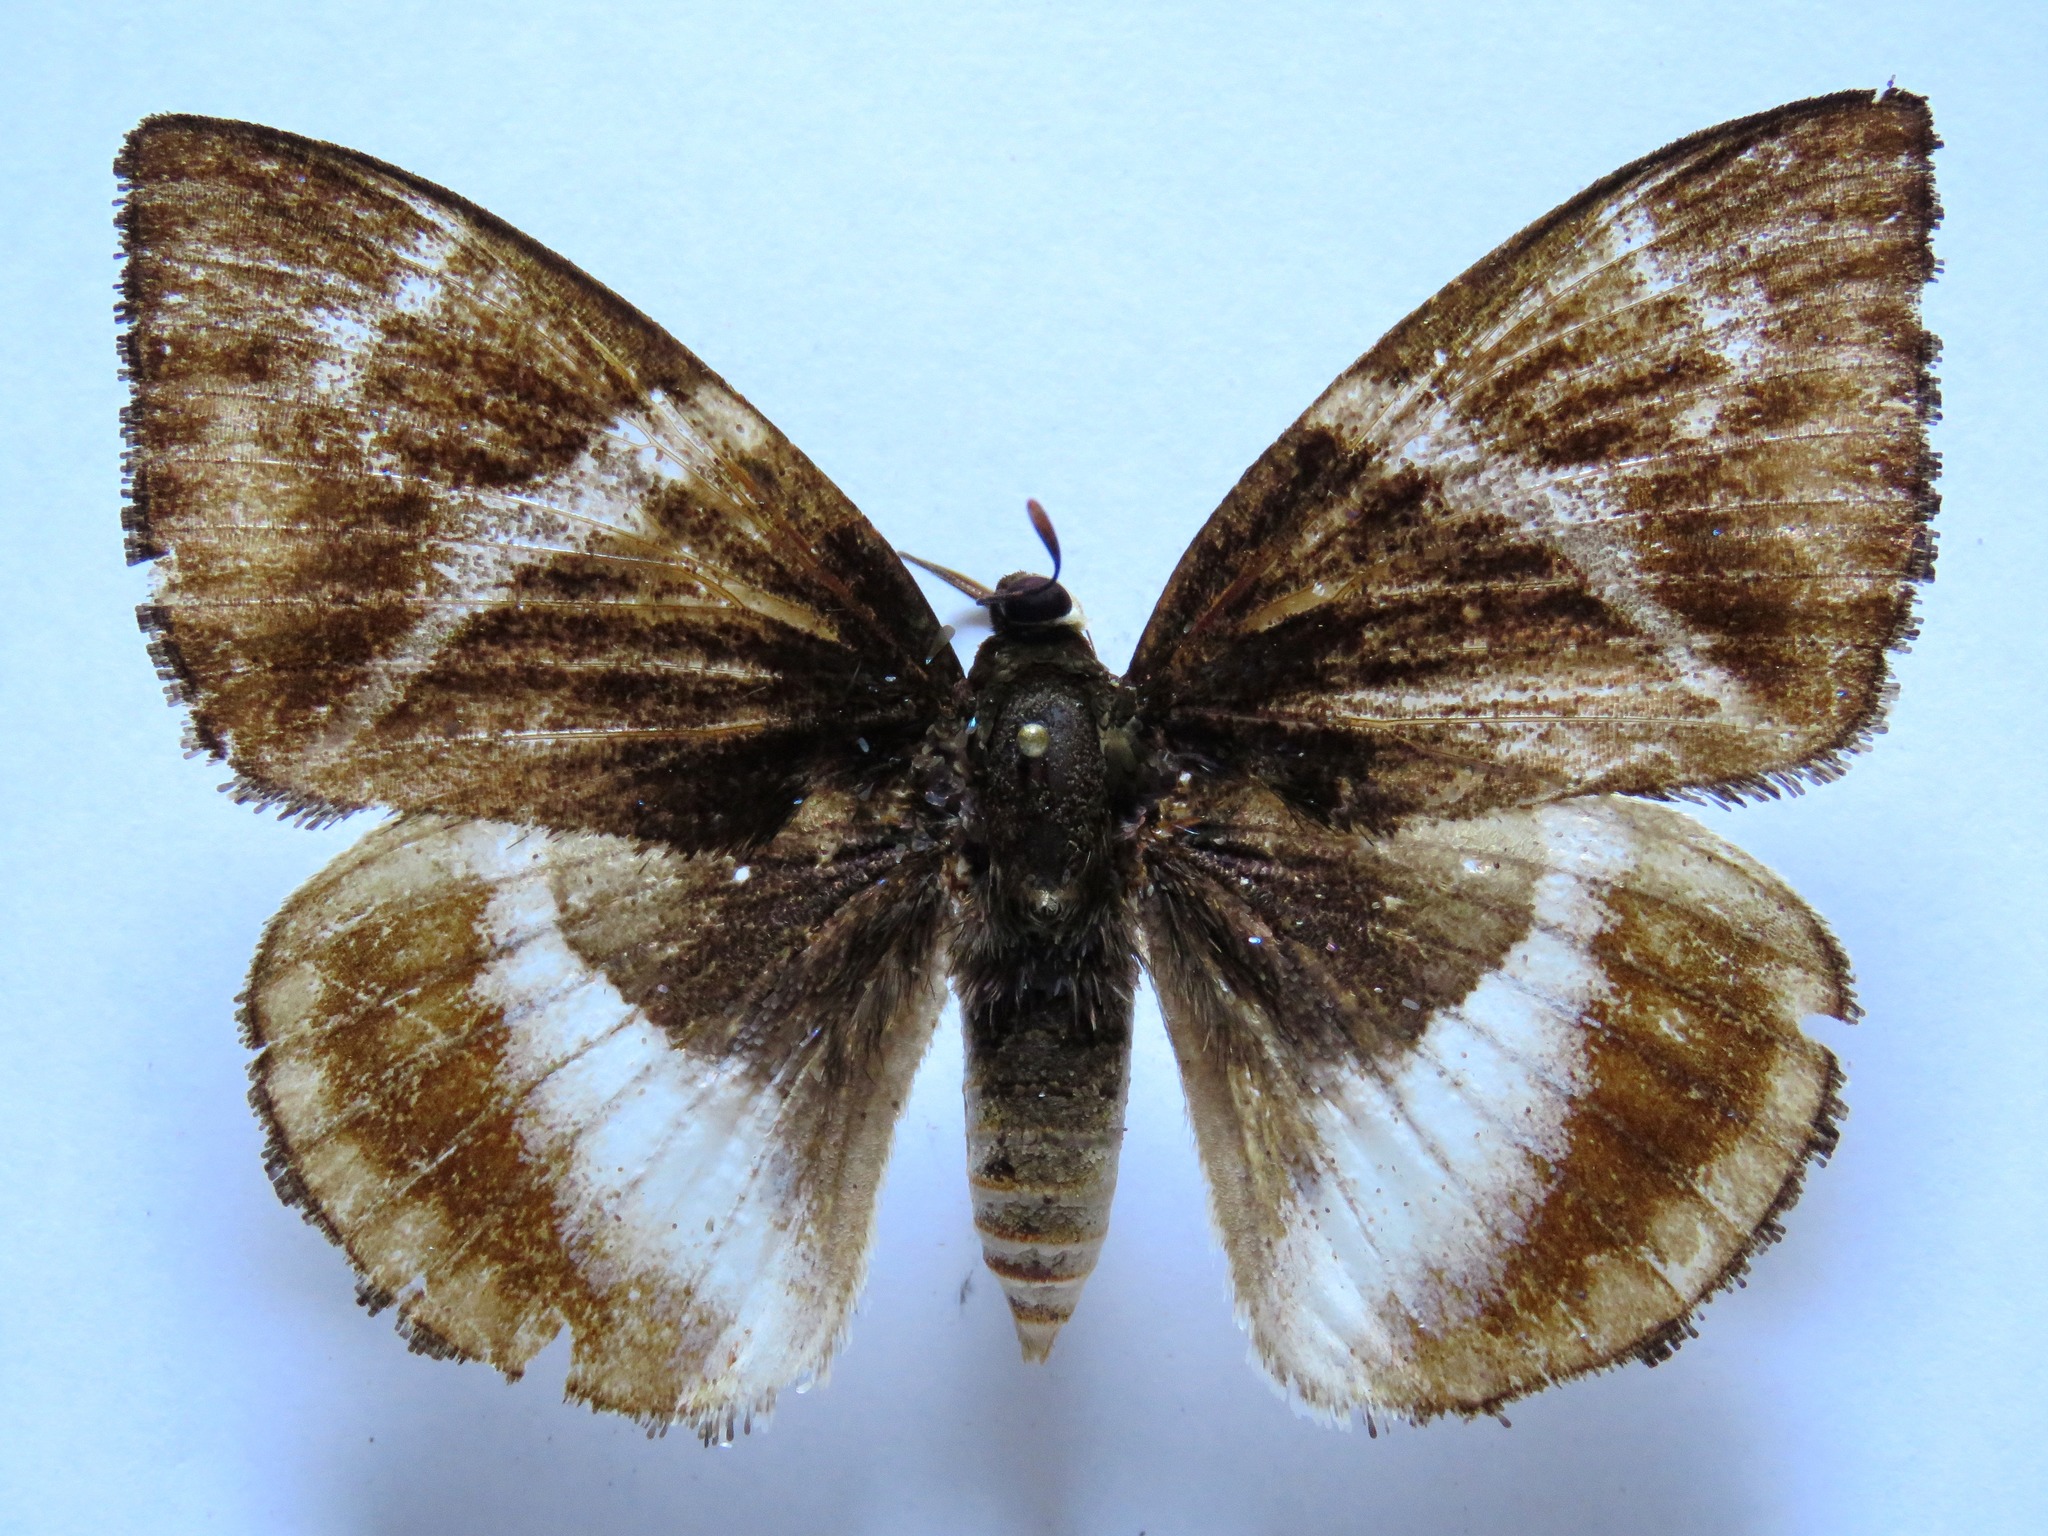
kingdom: Animalia
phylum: Arthropoda
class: Insecta
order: Lepidoptera
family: Castniidae
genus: Castniomera
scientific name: Castniomera atymnius
